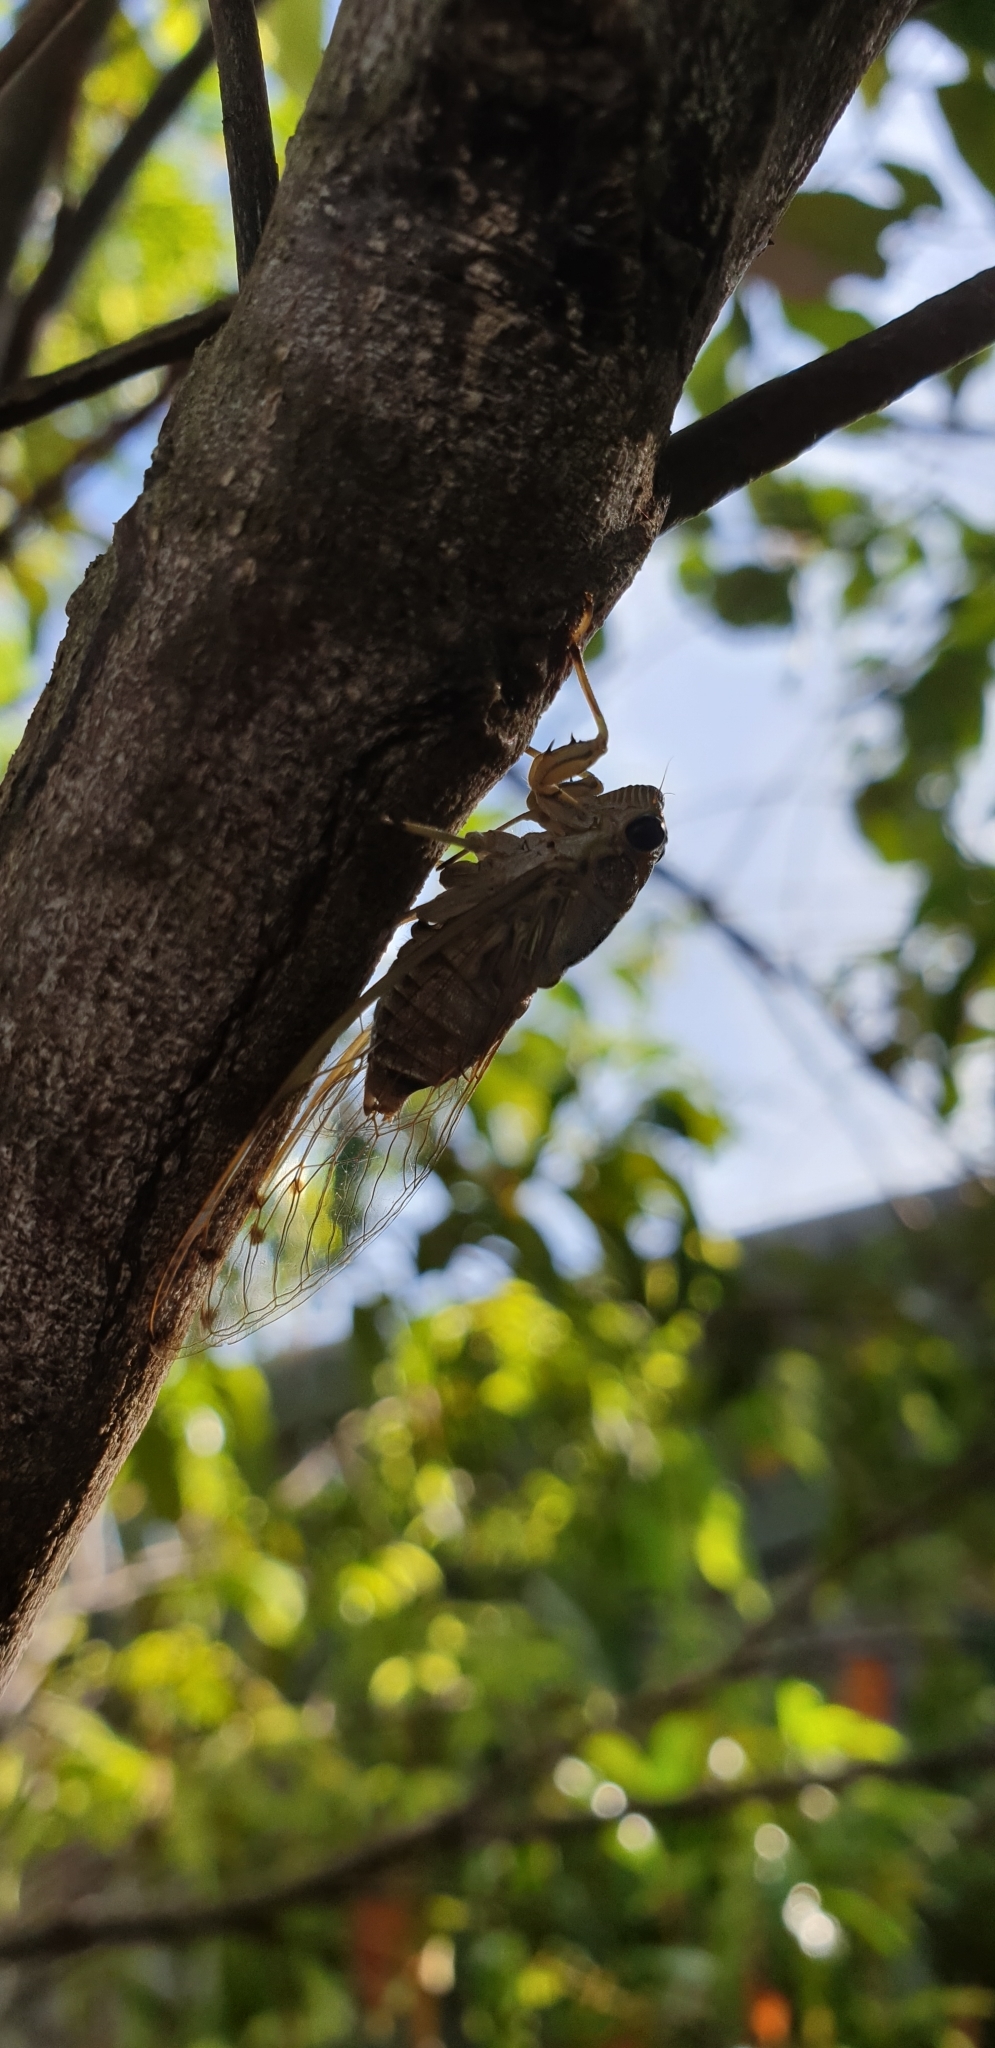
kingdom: Animalia
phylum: Arthropoda
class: Insecta
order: Hemiptera
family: Cicadidae
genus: Tamasa
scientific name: Tamasa tristigma
